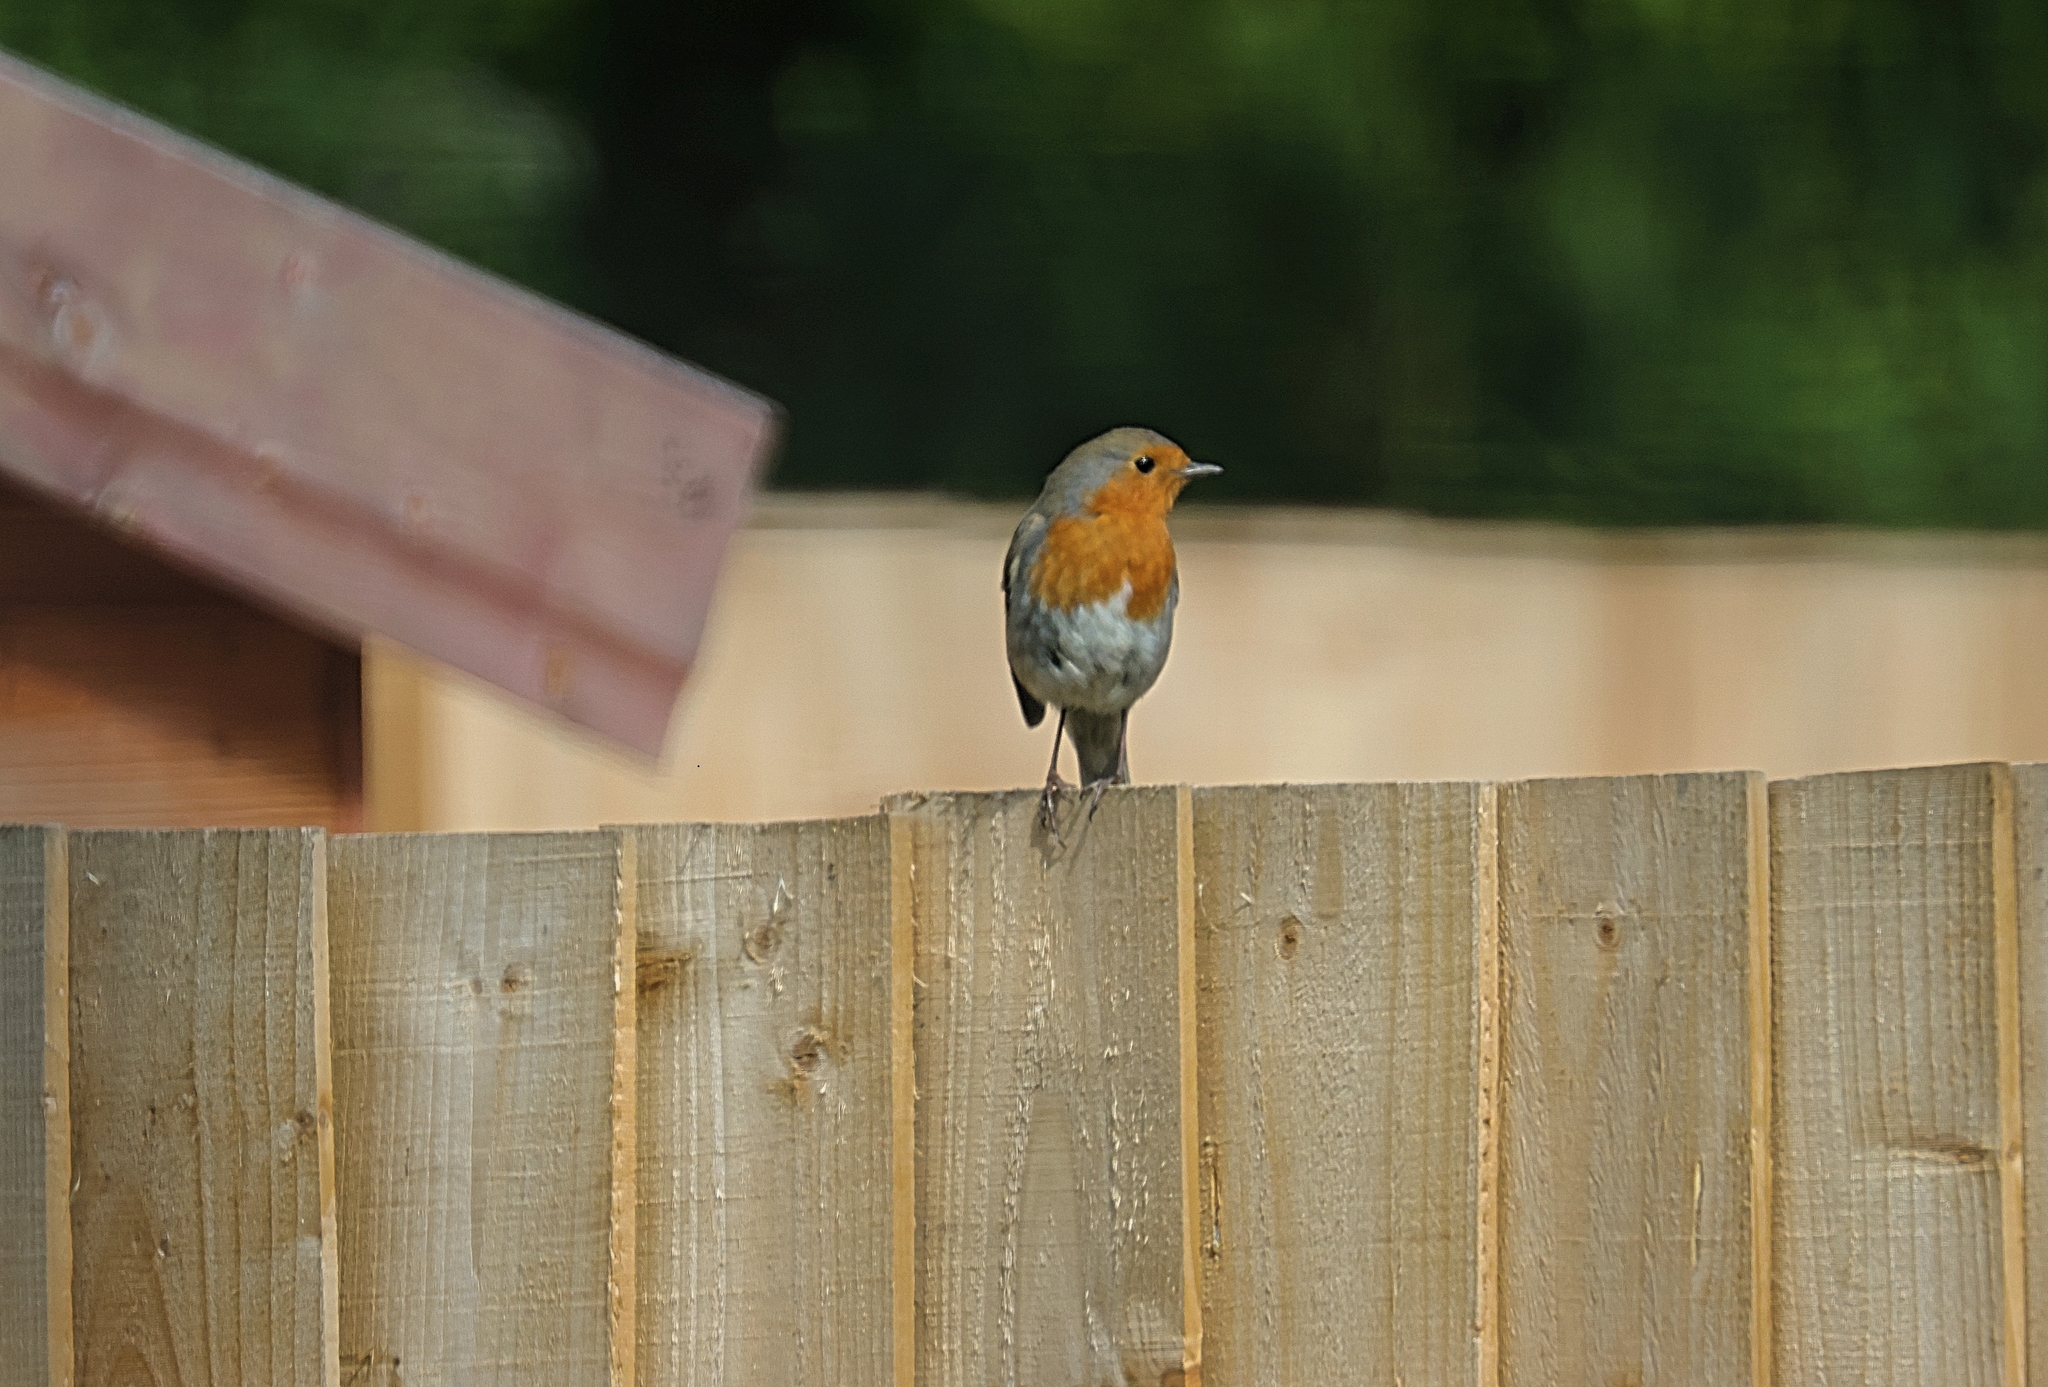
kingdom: Animalia
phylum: Chordata
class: Aves
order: Passeriformes
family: Muscicapidae
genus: Erithacus
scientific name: Erithacus rubecula
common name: European robin
